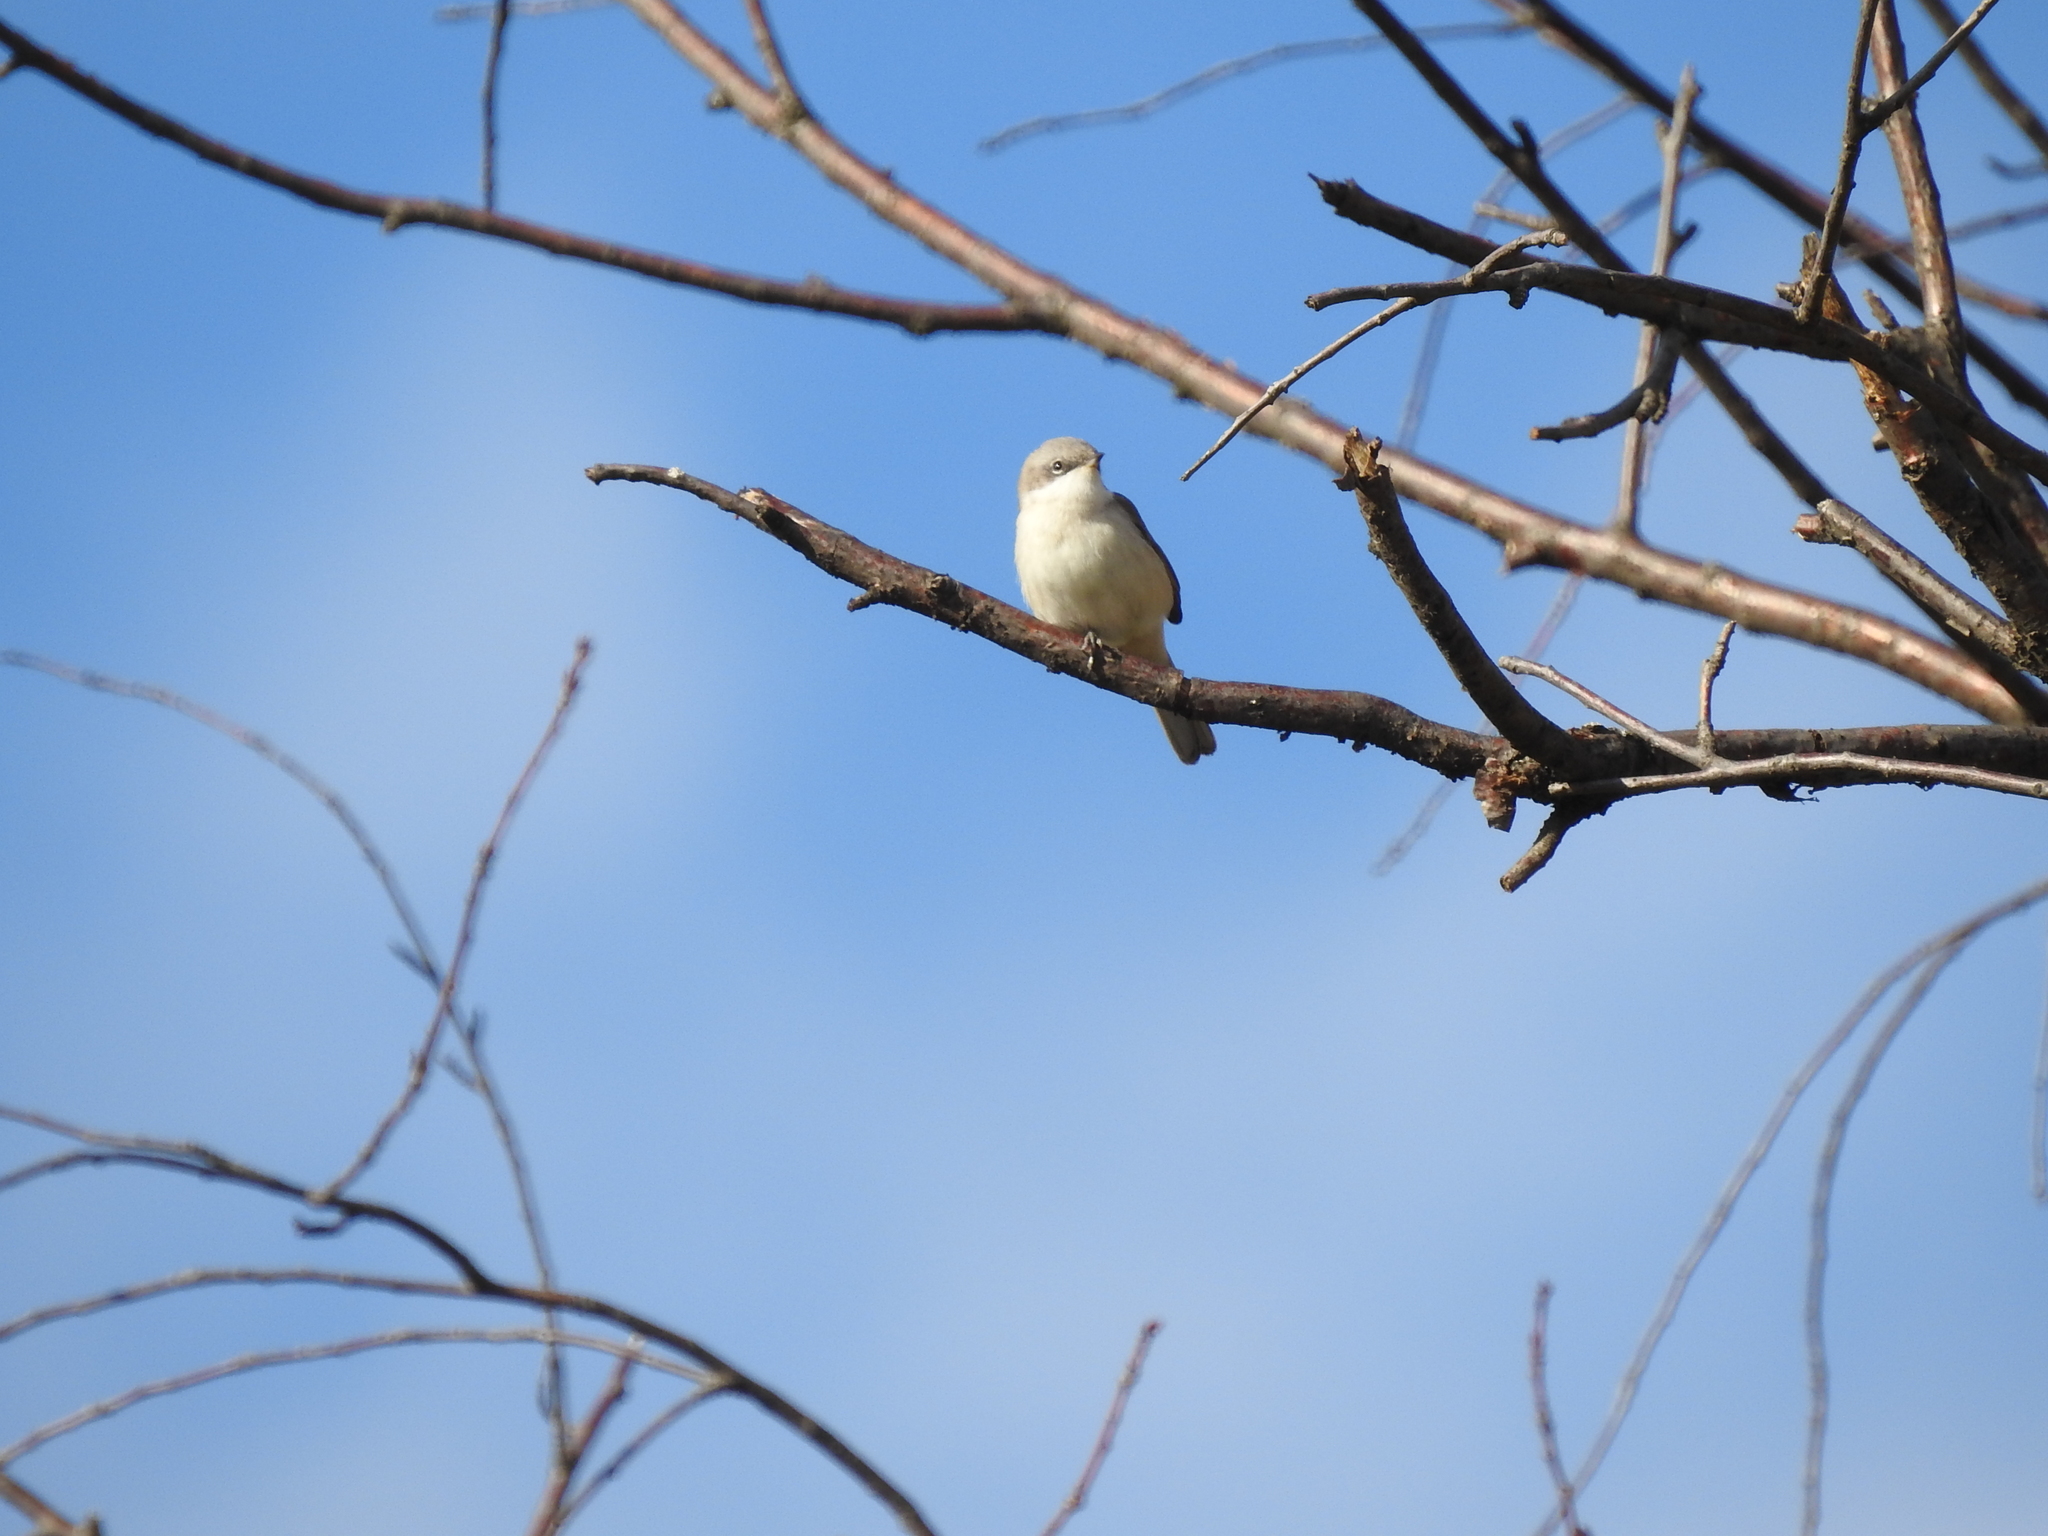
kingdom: Animalia
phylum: Chordata
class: Aves
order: Passeriformes
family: Sylviidae
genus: Sylvia
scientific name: Sylvia curruca
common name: Lesser whitethroat
